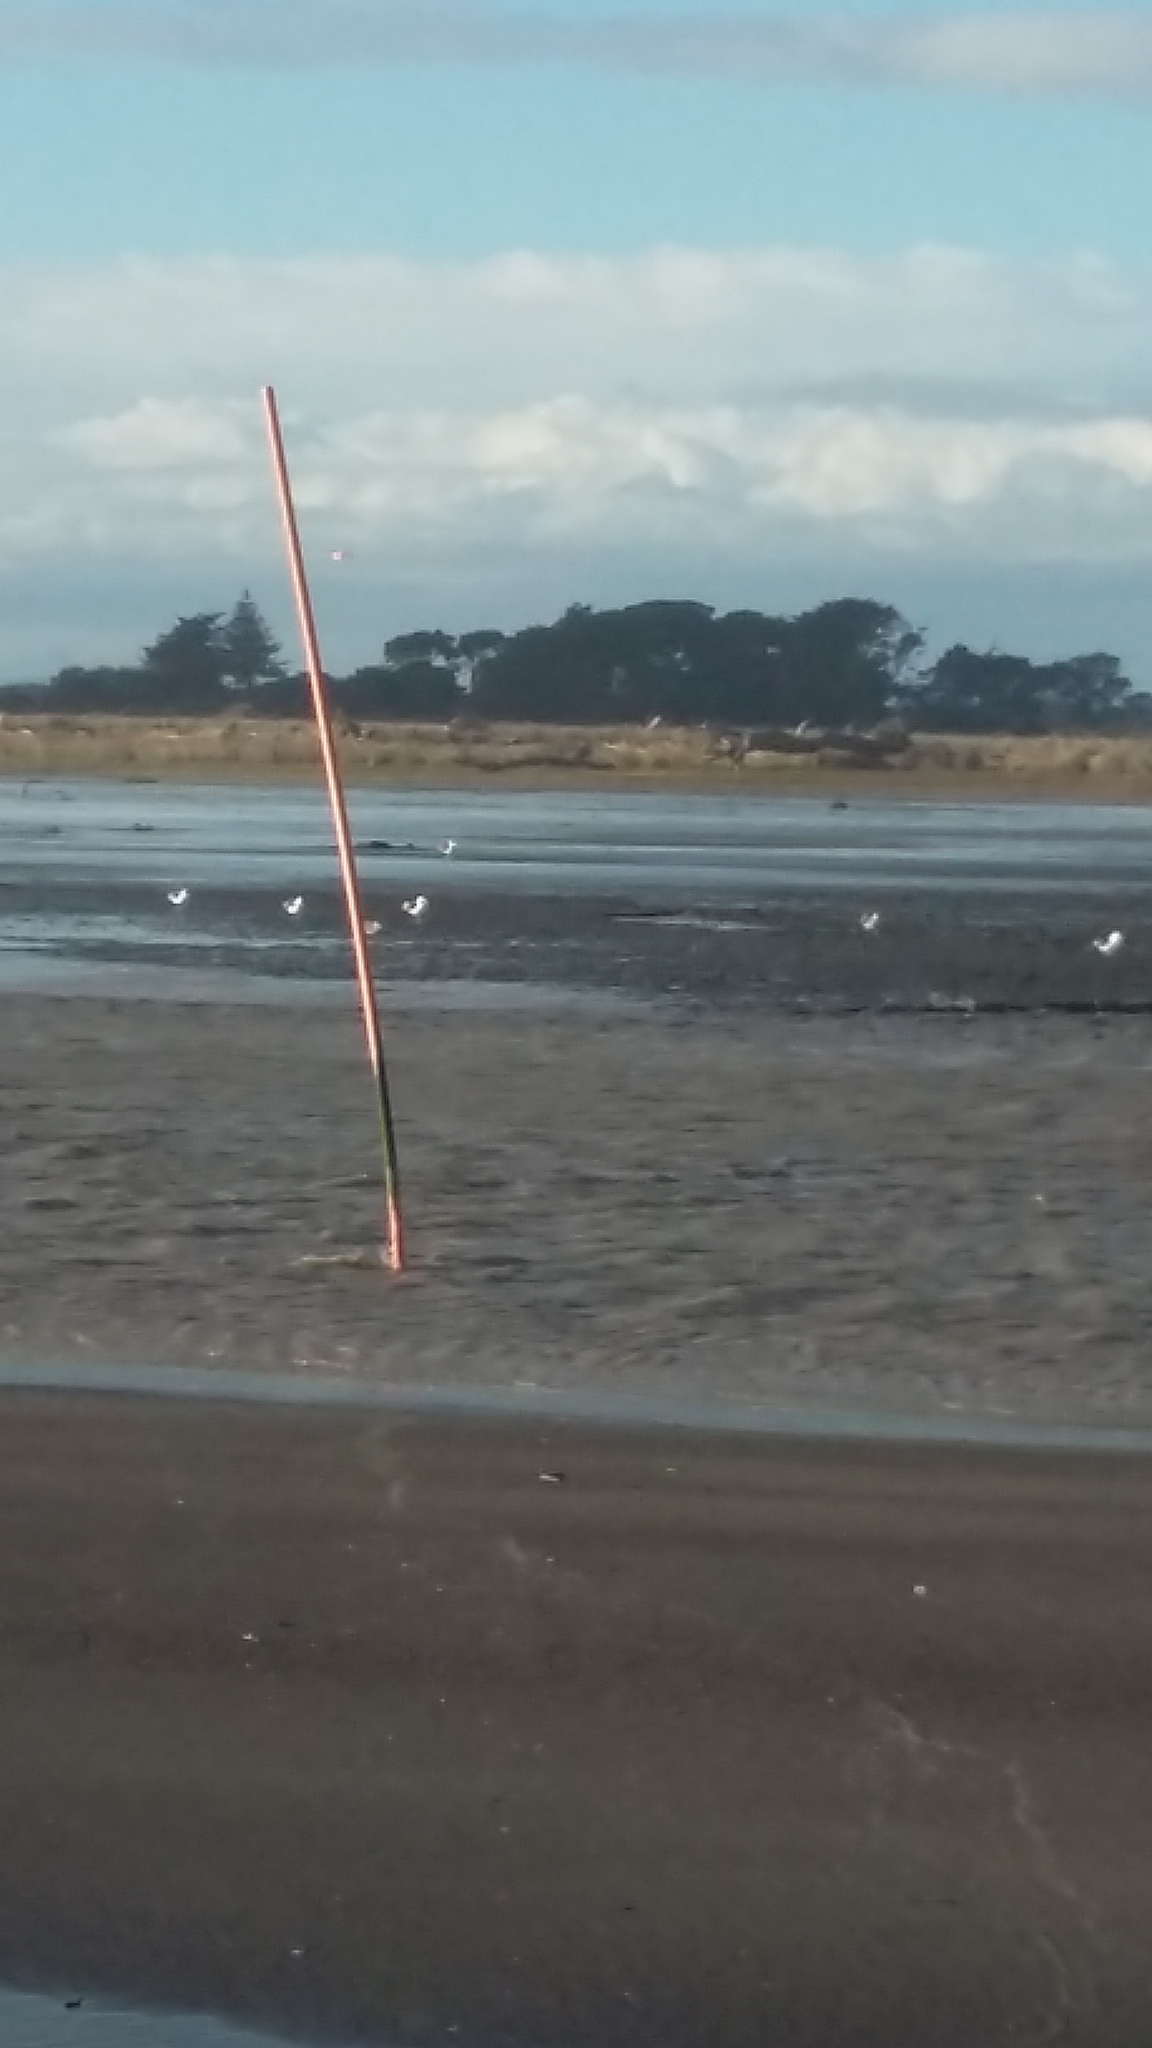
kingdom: Animalia
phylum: Chordata
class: Aves
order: Charadriiformes
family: Laridae
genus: Larus
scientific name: Larus dominicanus
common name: Kelp gull
